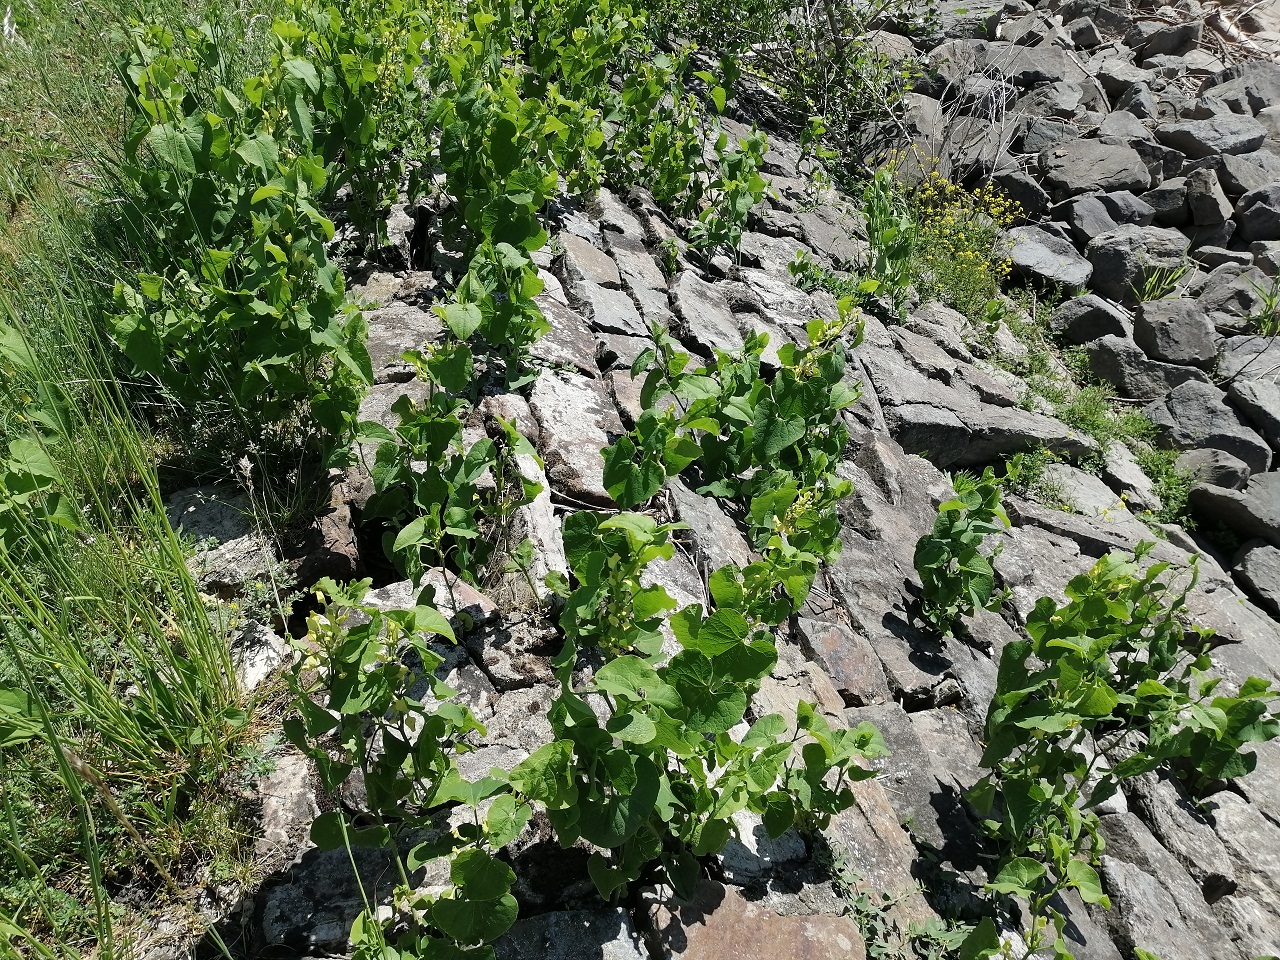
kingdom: Plantae
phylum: Tracheophyta
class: Magnoliopsida
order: Piperales
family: Aristolochiaceae
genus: Aristolochia
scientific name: Aristolochia clematitis
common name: Birthwort
